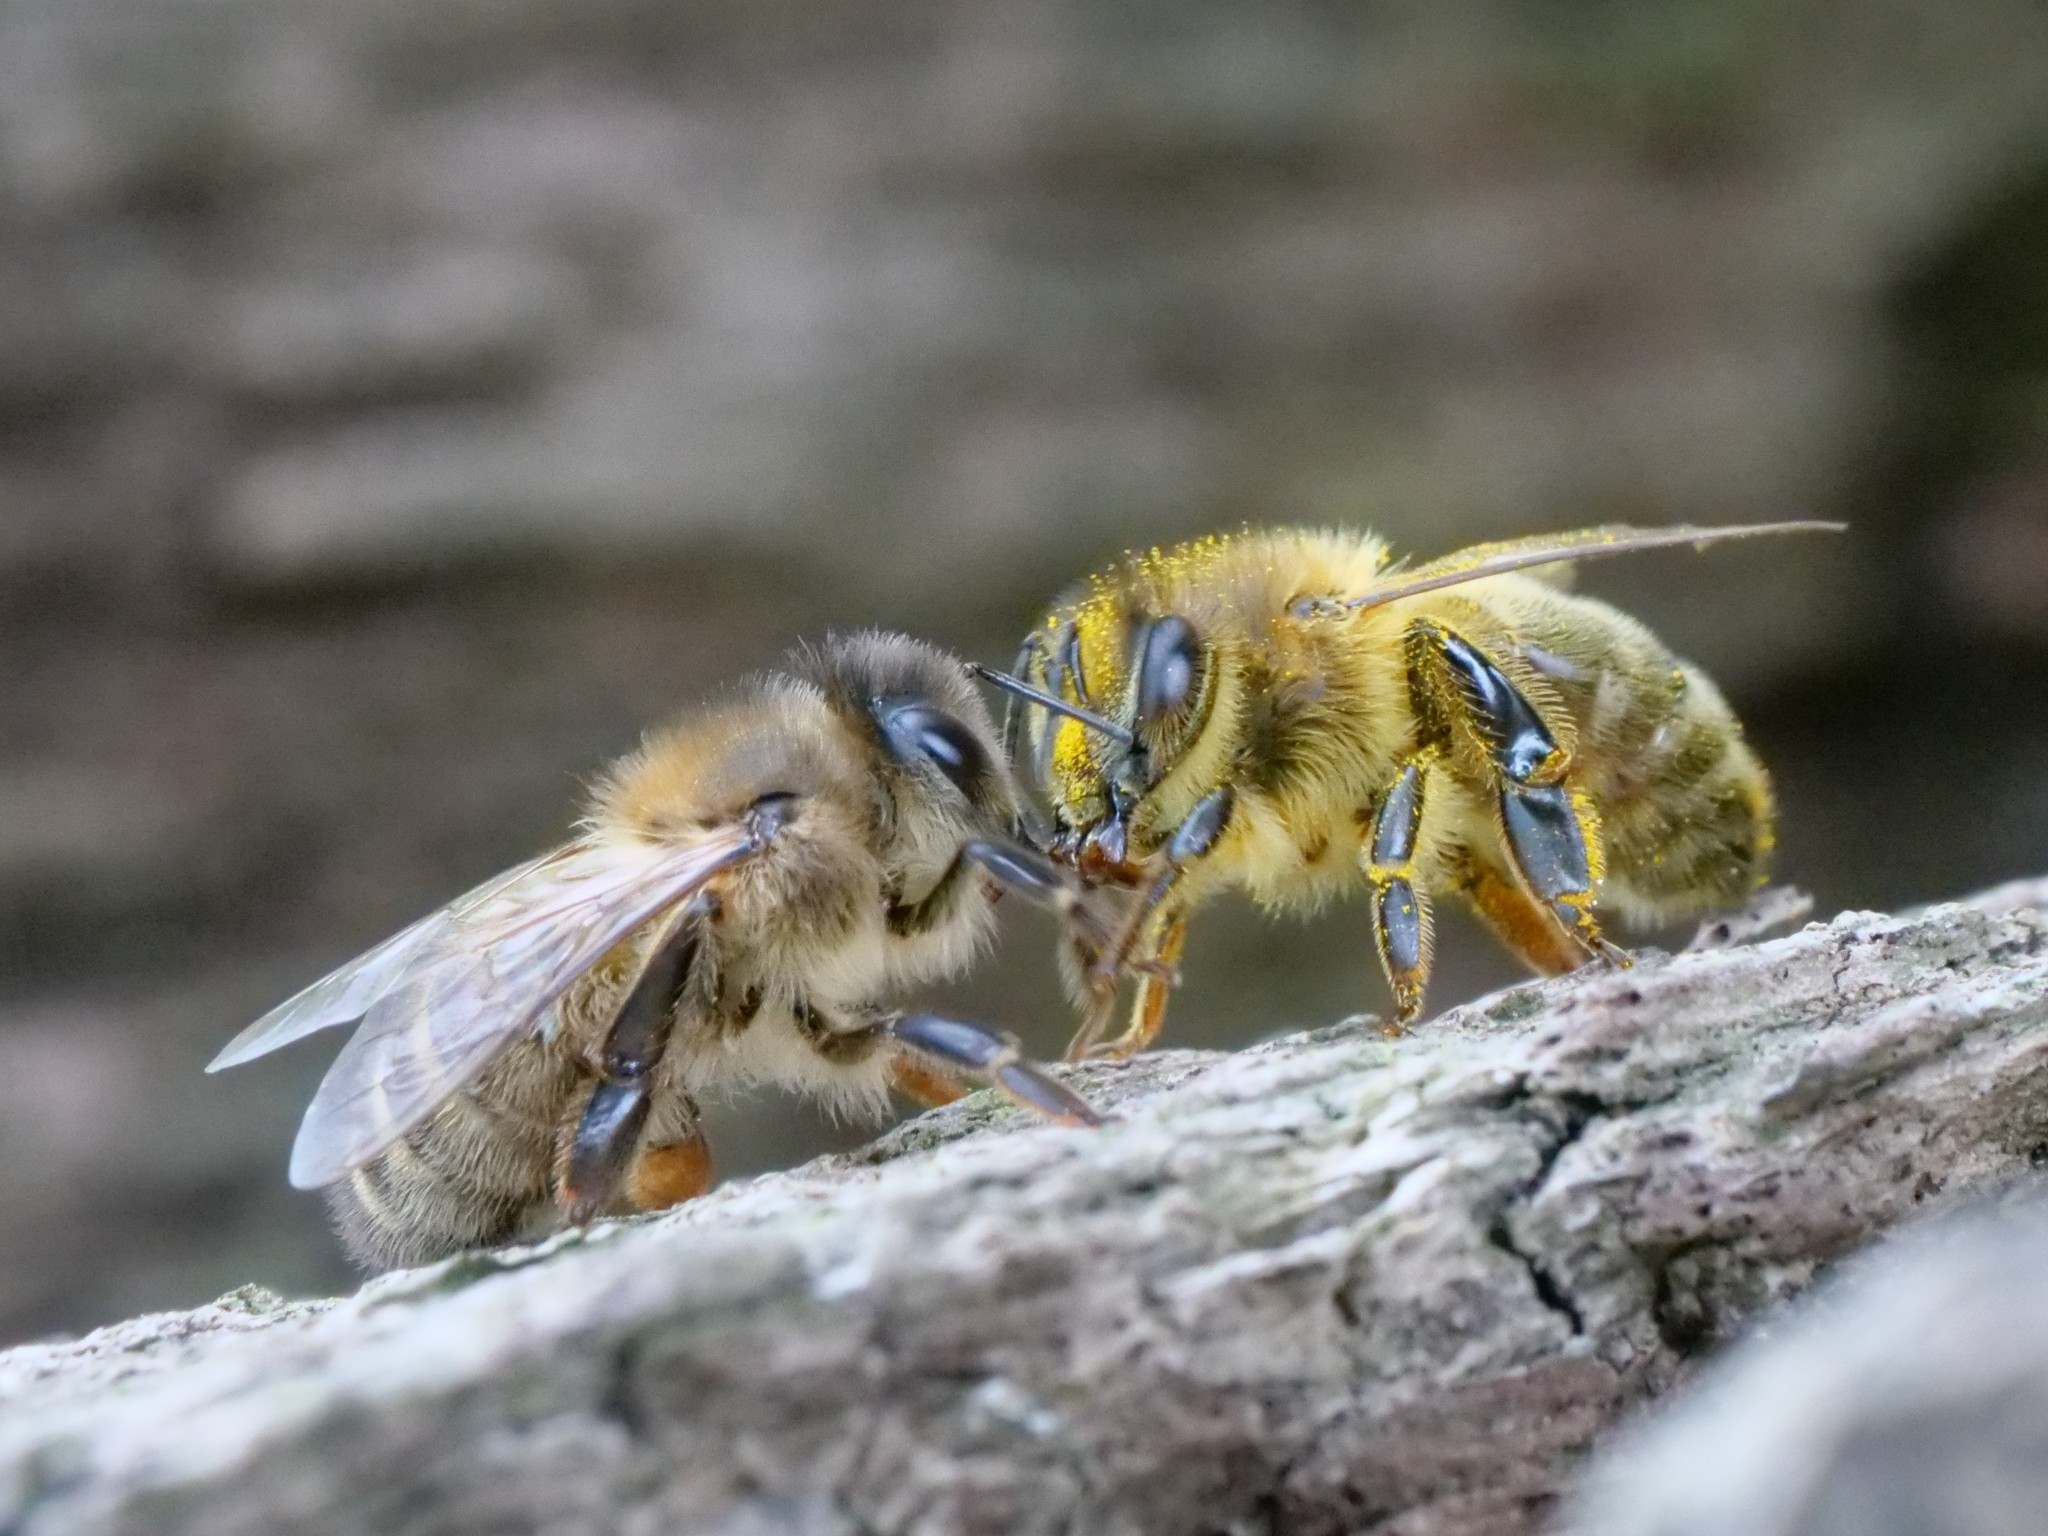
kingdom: Animalia
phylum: Arthropoda
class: Insecta
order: Hymenoptera
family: Apidae
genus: Apis
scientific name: Apis mellifera
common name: Honey bee
